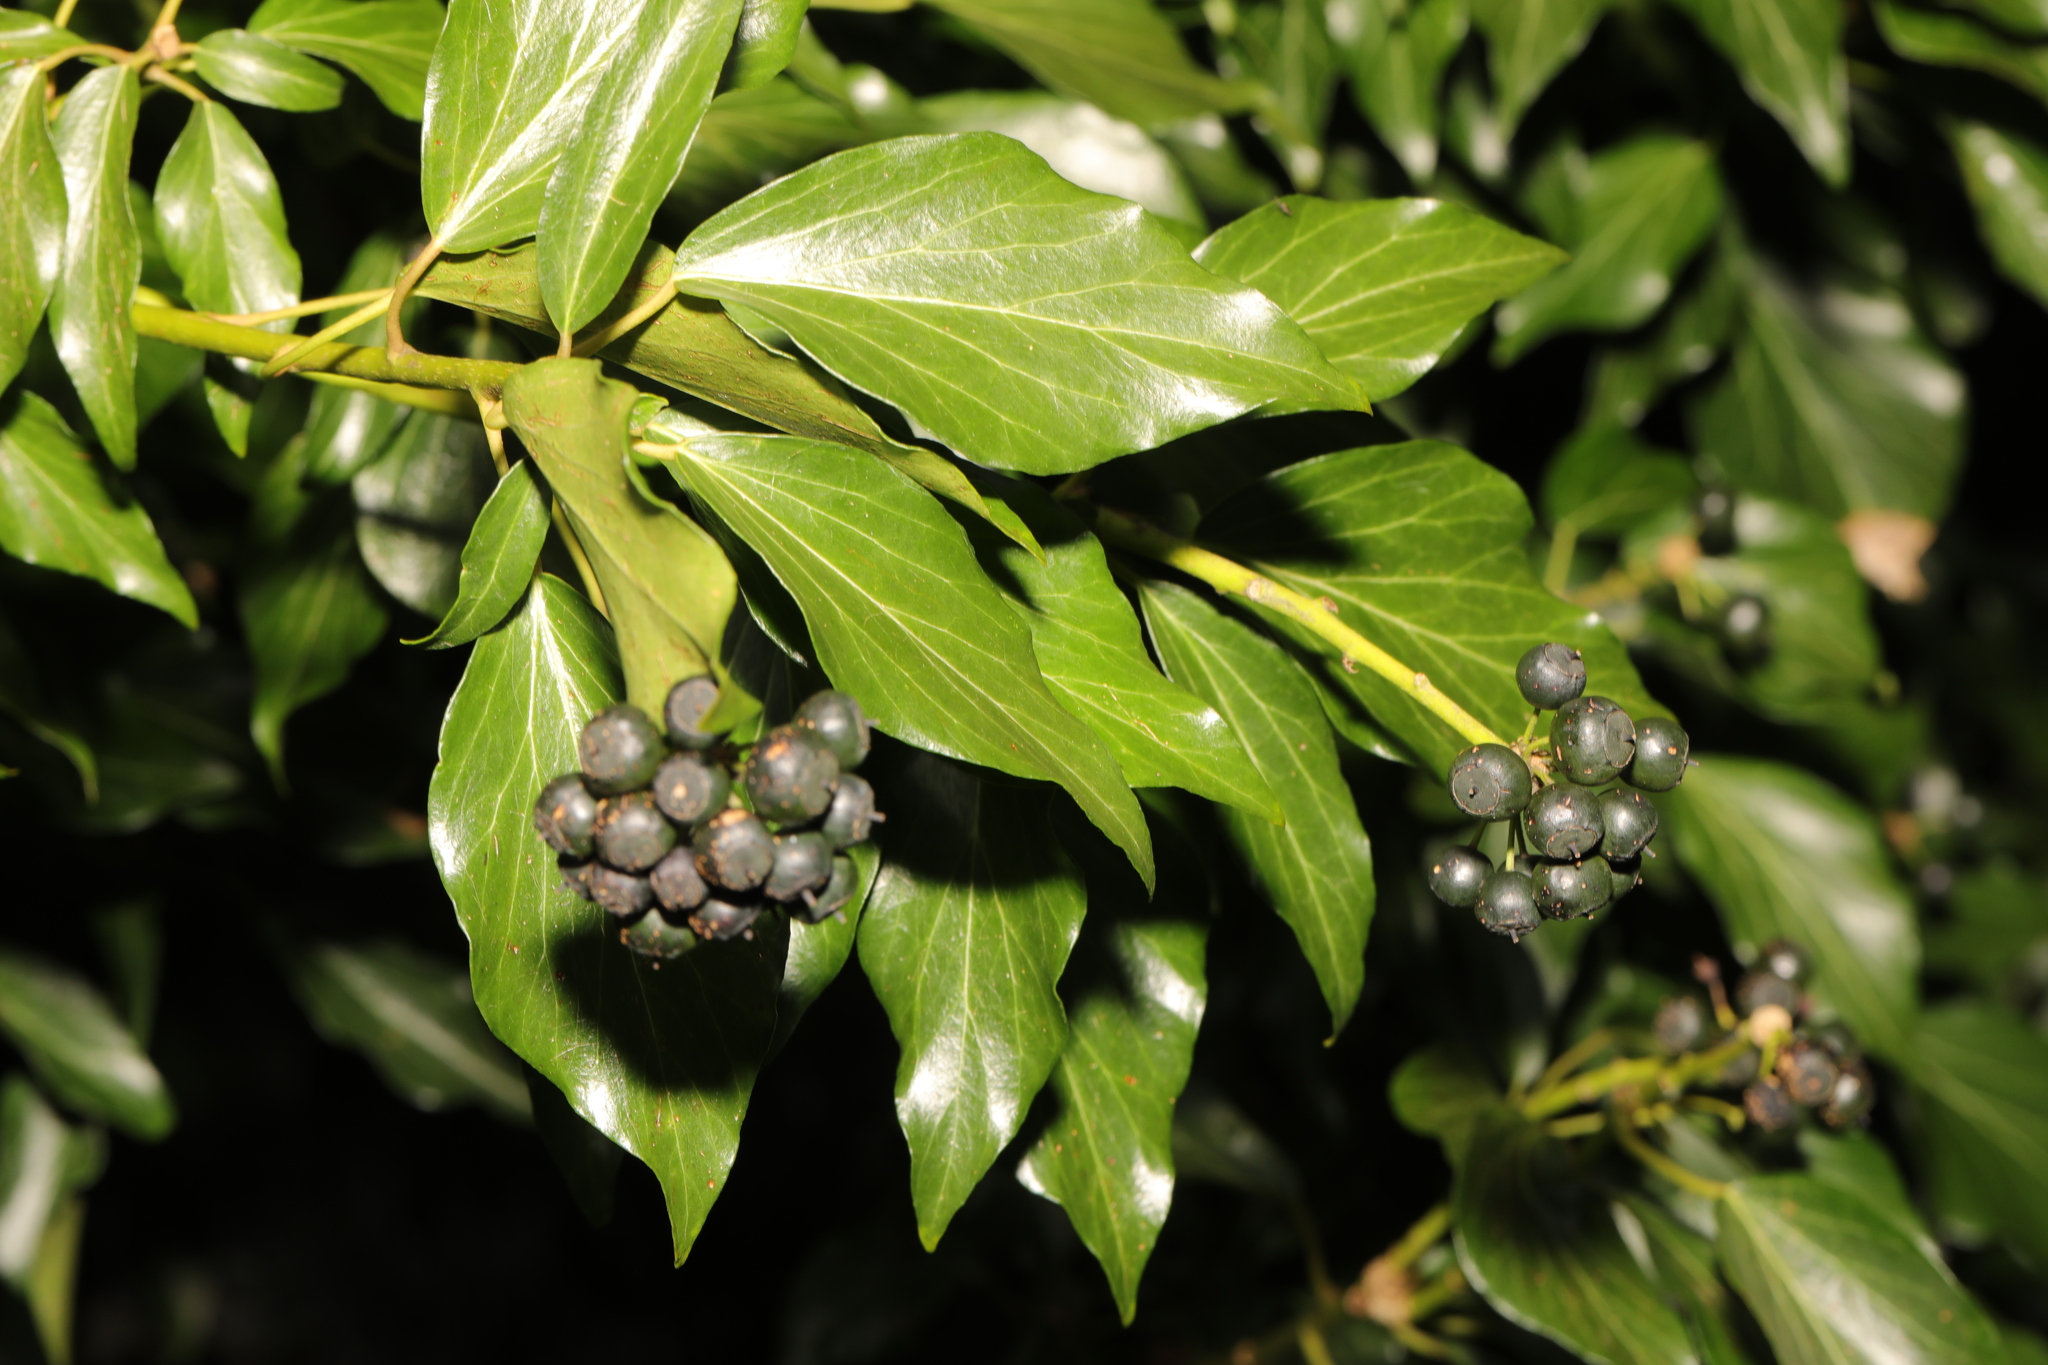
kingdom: Plantae
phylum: Tracheophyta
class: Magnoliopsida
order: Apiales
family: Araliaceae
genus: Hedera
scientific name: Hedera helix
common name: Ivy
